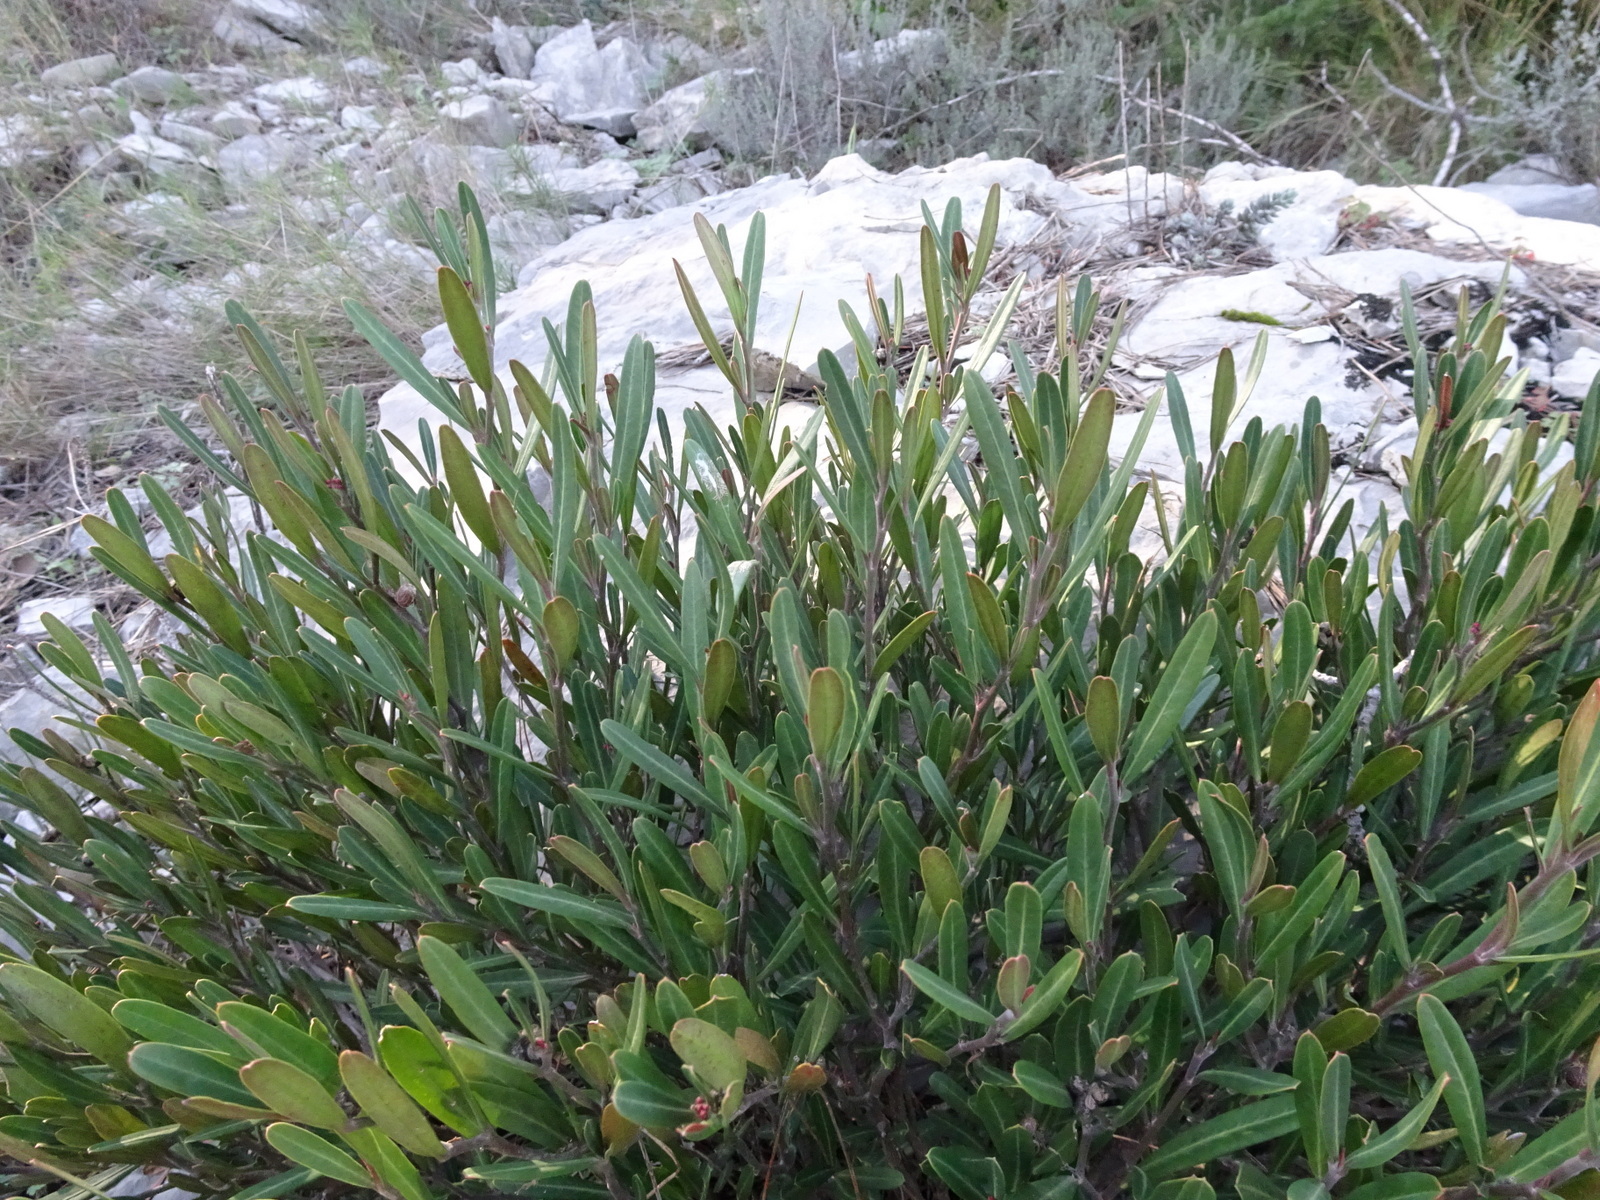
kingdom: Plantae
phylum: Tracheophyta
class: Magnoliopsida
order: Sapindales
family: Rutaceae
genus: Cneorum
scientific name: Cneorum tricoccon
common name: Spurge olive
